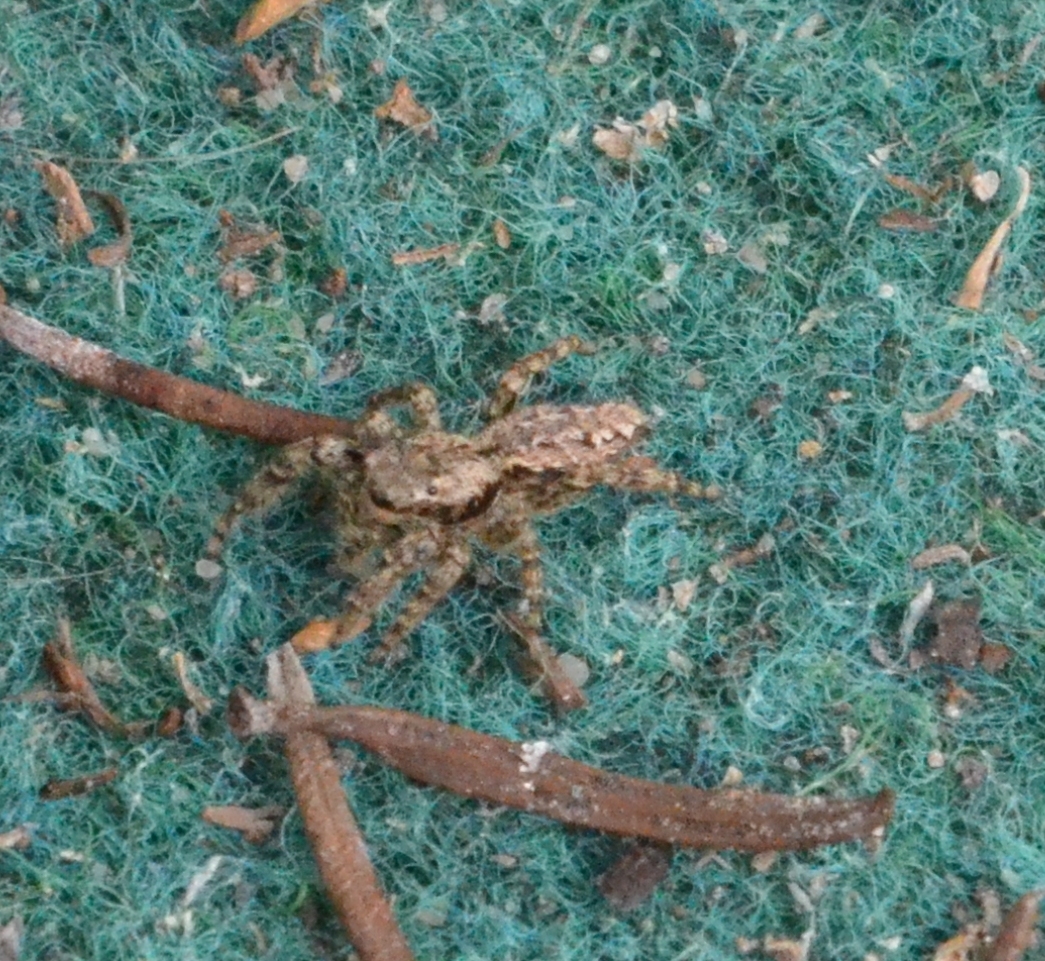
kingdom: Animalia
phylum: Arthropoda
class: Arachnida
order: Araneae
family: Salticidae
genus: Marpissa
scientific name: Marpissa muscosa
